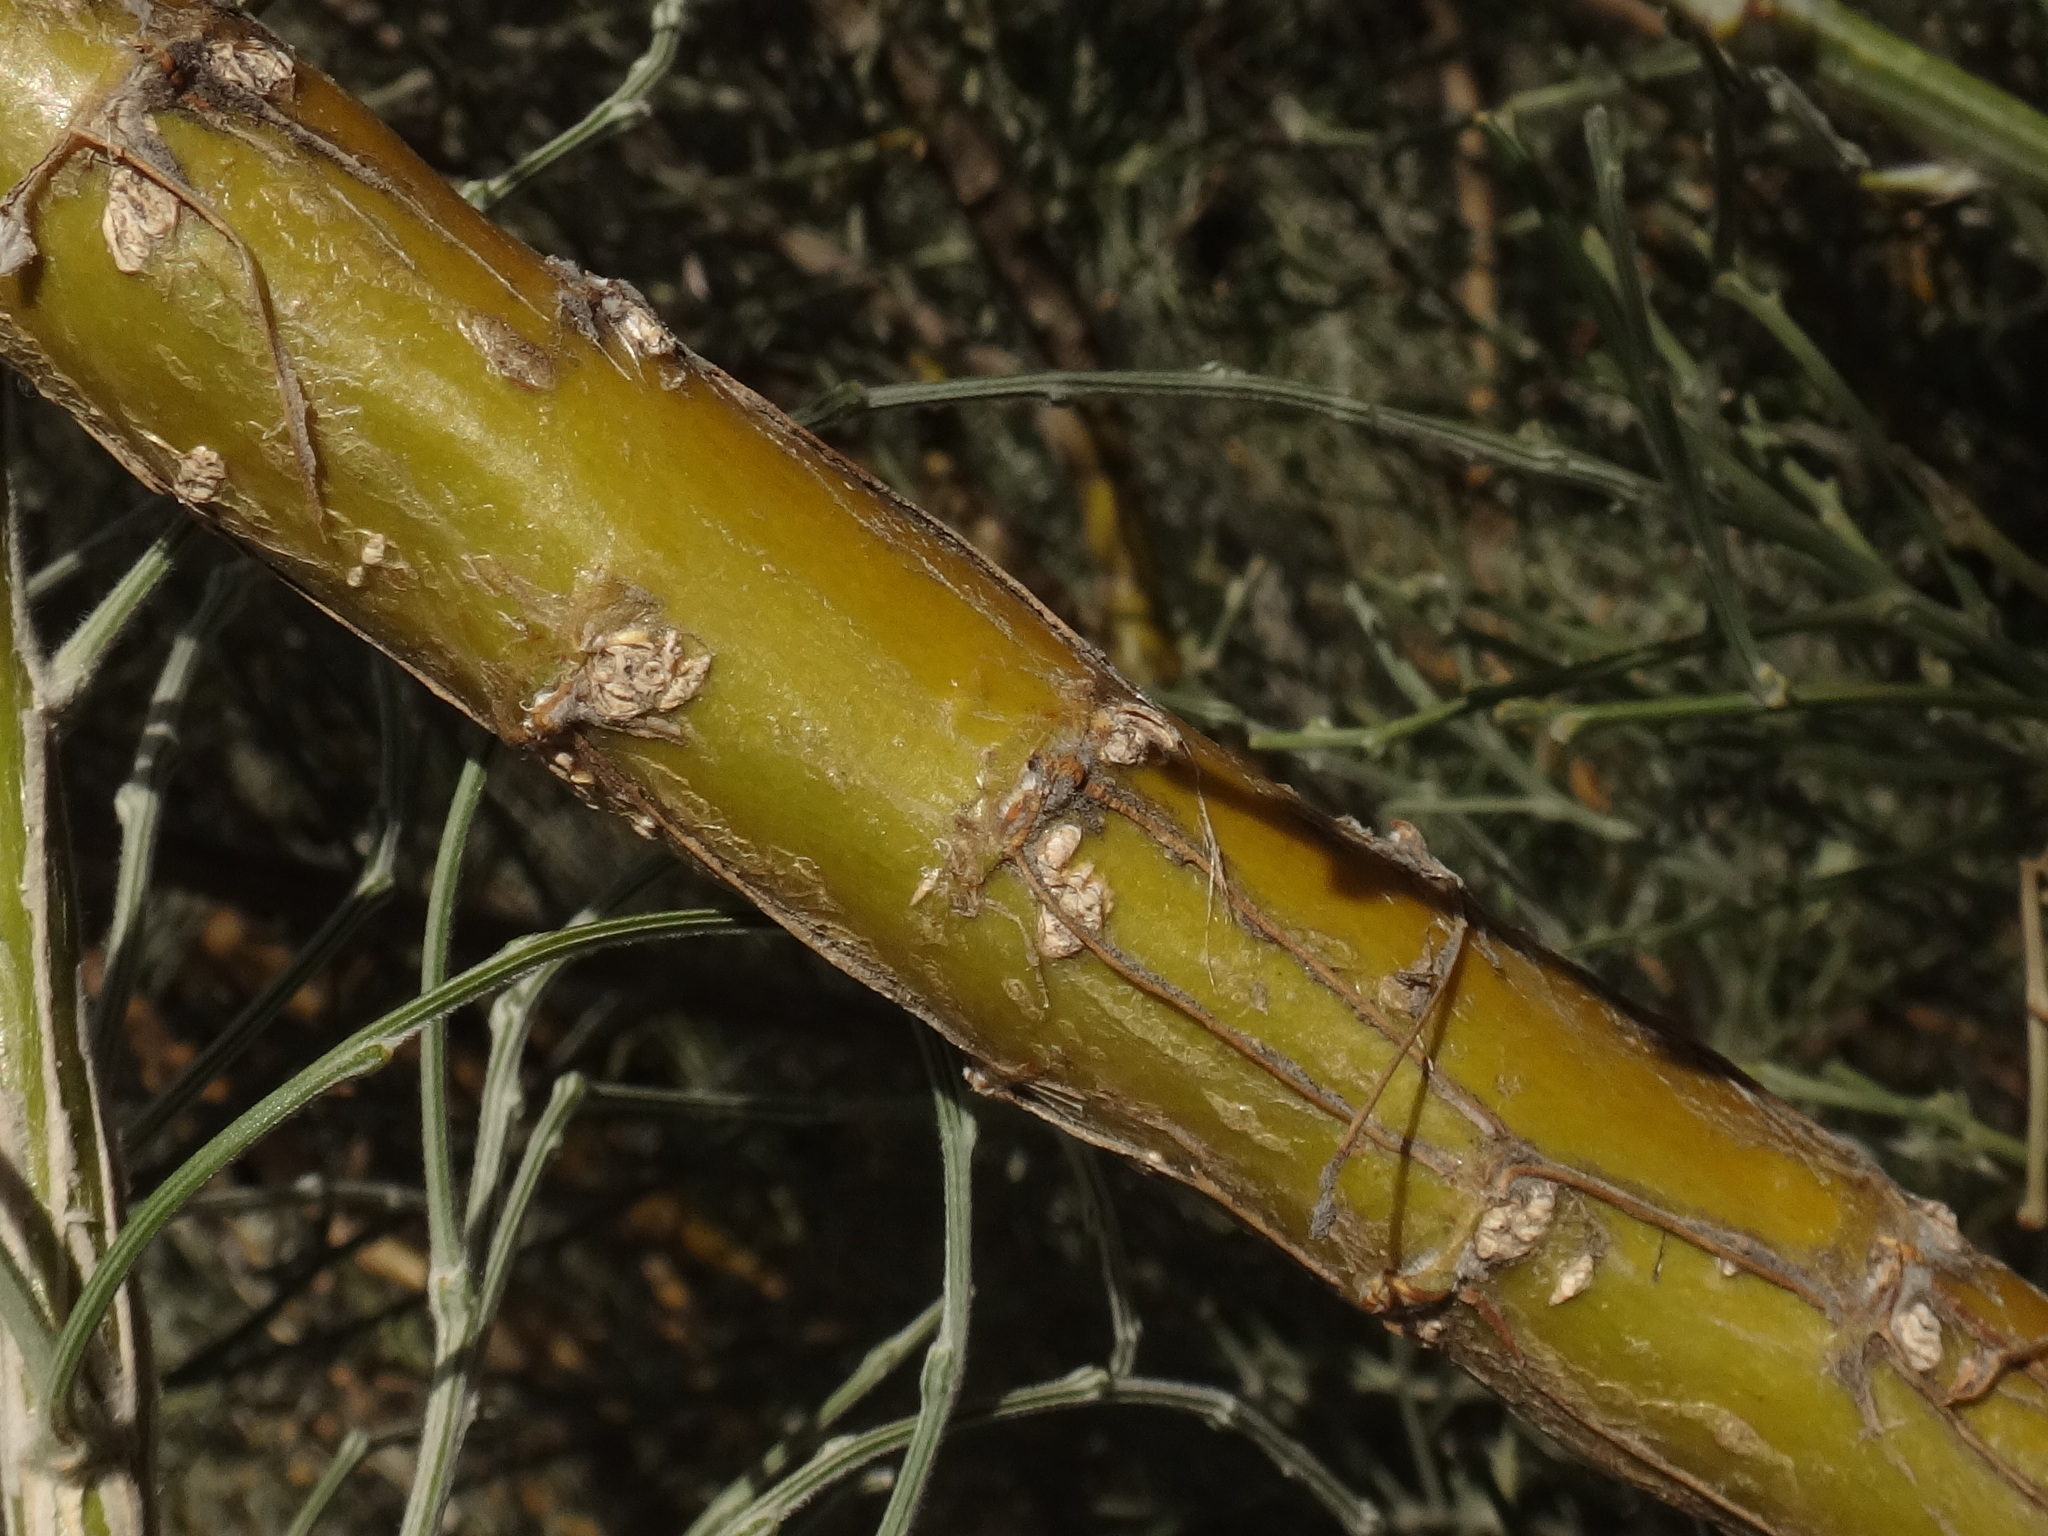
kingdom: Plantae
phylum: Tracheophyta
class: Magnoliopsida
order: Fabales
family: Fabaceae
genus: Genista
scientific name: Genista benehoavensis
